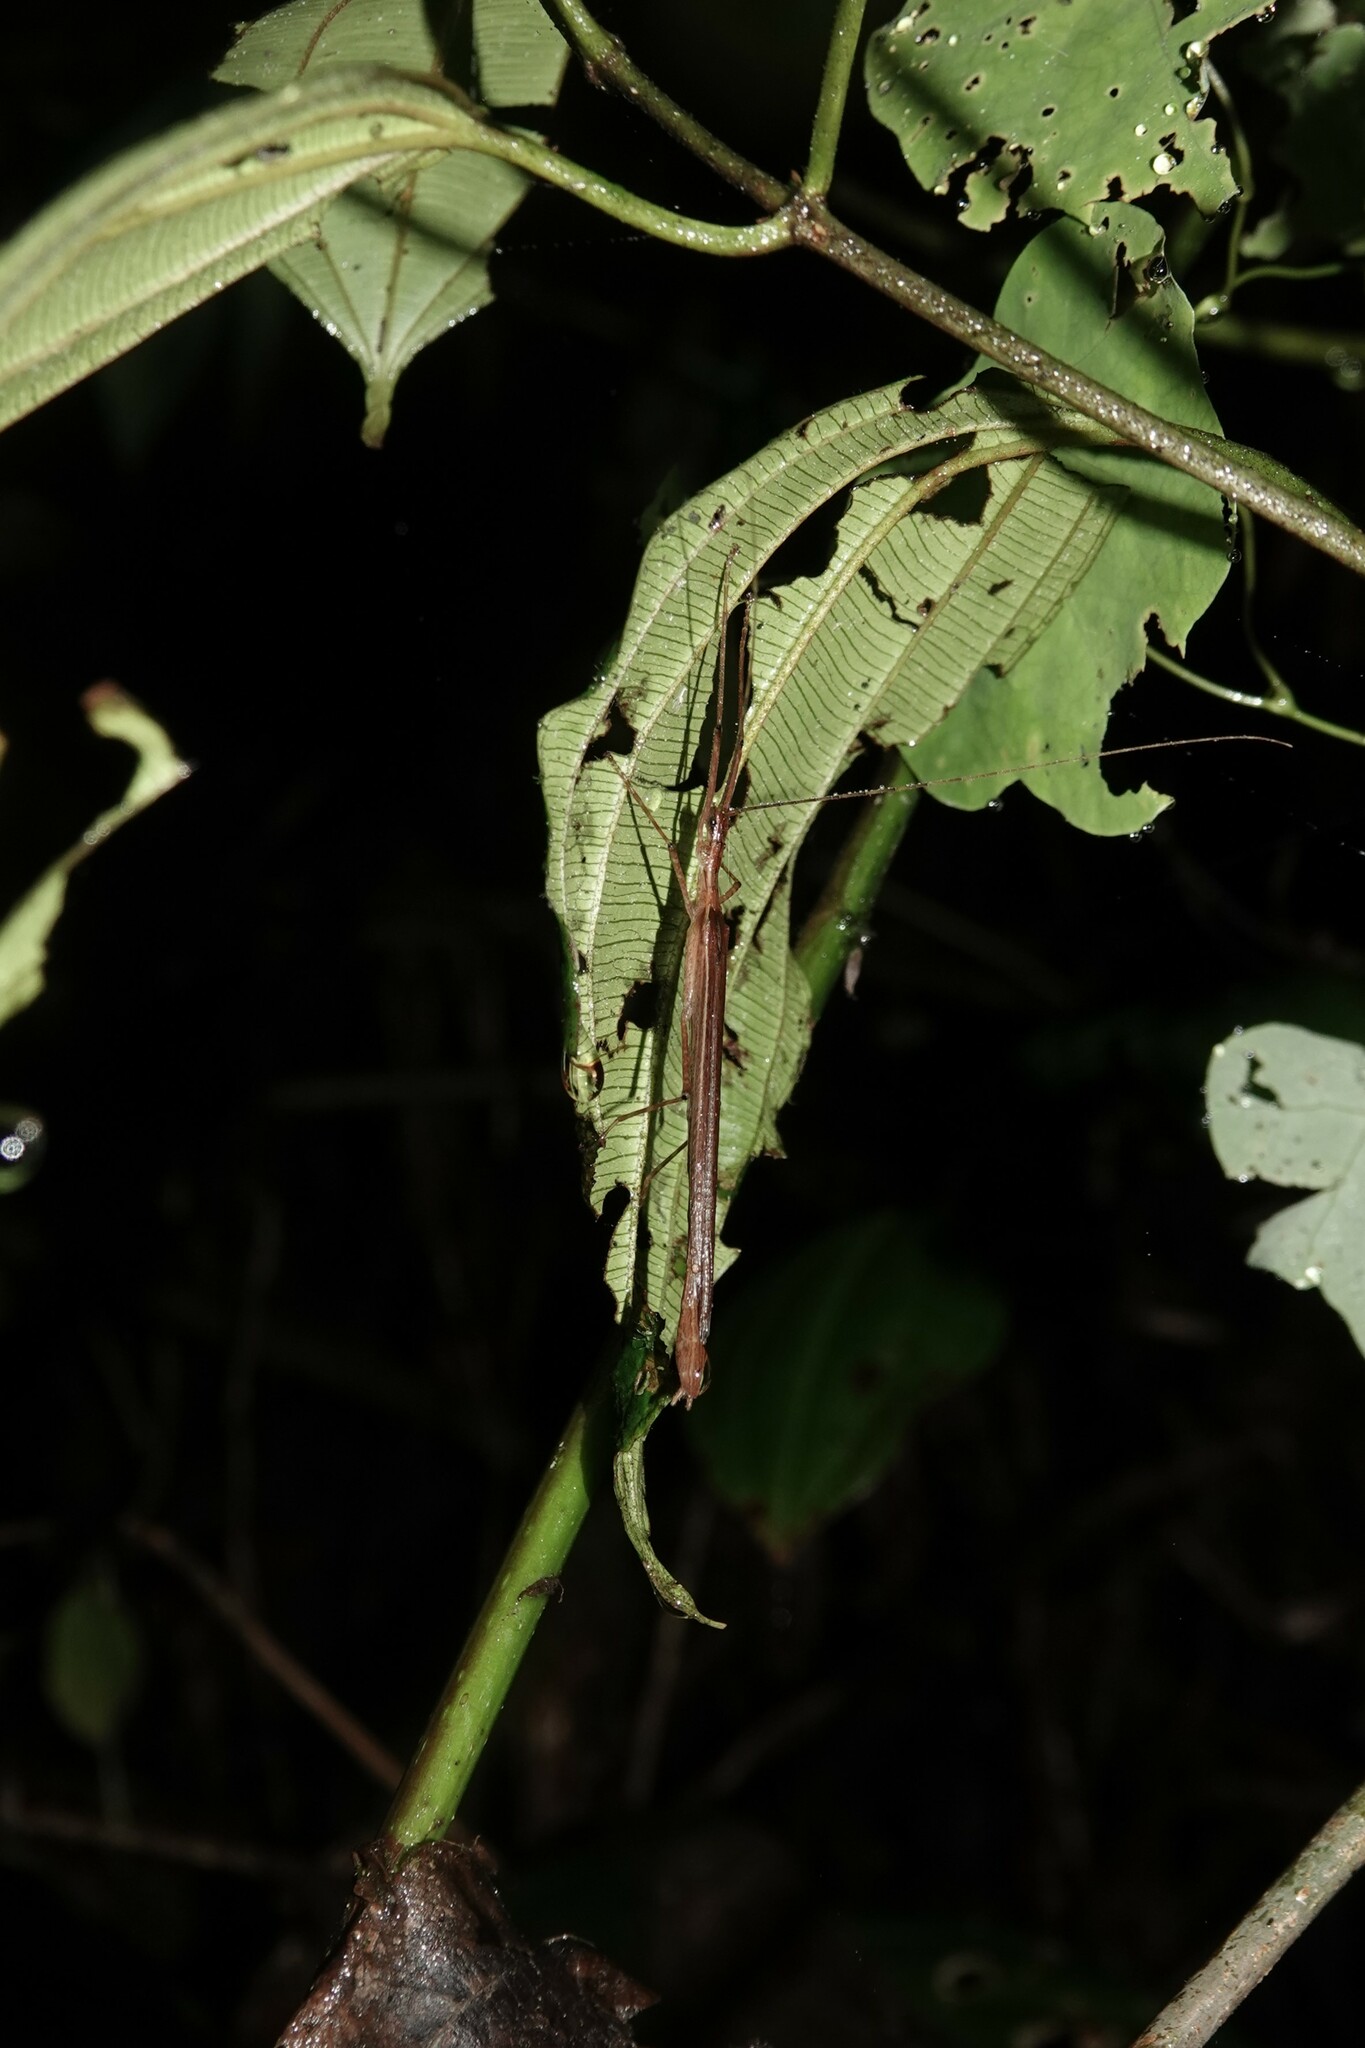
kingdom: Animalia
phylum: Arthropoda
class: Insecta
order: Phasmida
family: Pseudophasmatidae
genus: Olcyphides
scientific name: Olcyphides obscurellus
